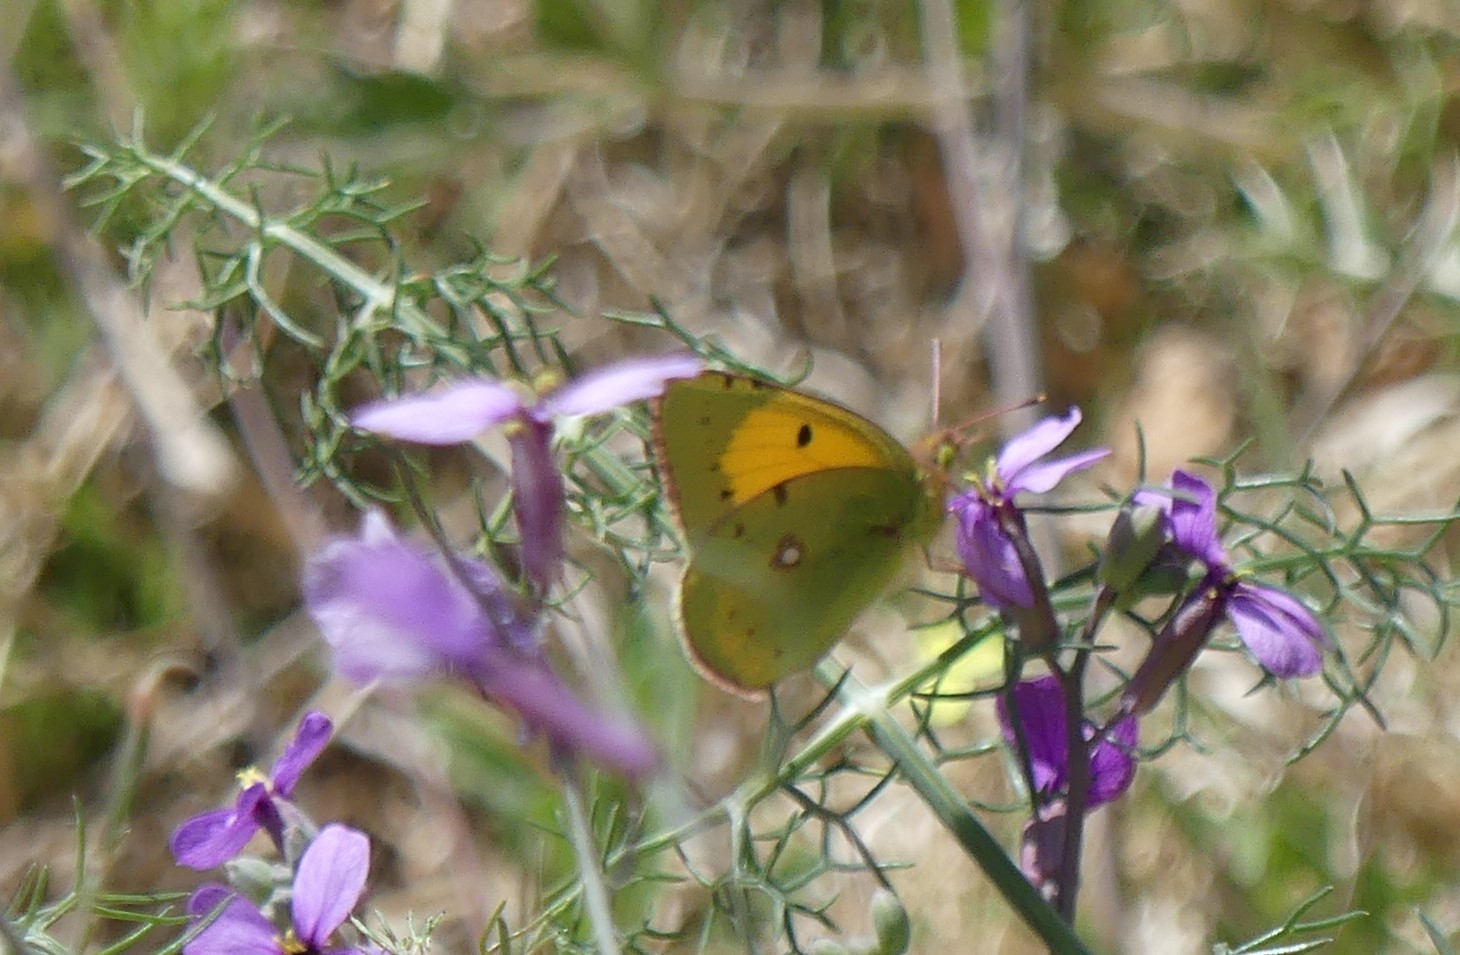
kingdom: Animalia
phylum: Arthropoda
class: Insecta
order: Lepidoptera
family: Pieridae
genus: Colias
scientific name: Colias croceus
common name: Clouded yellow
